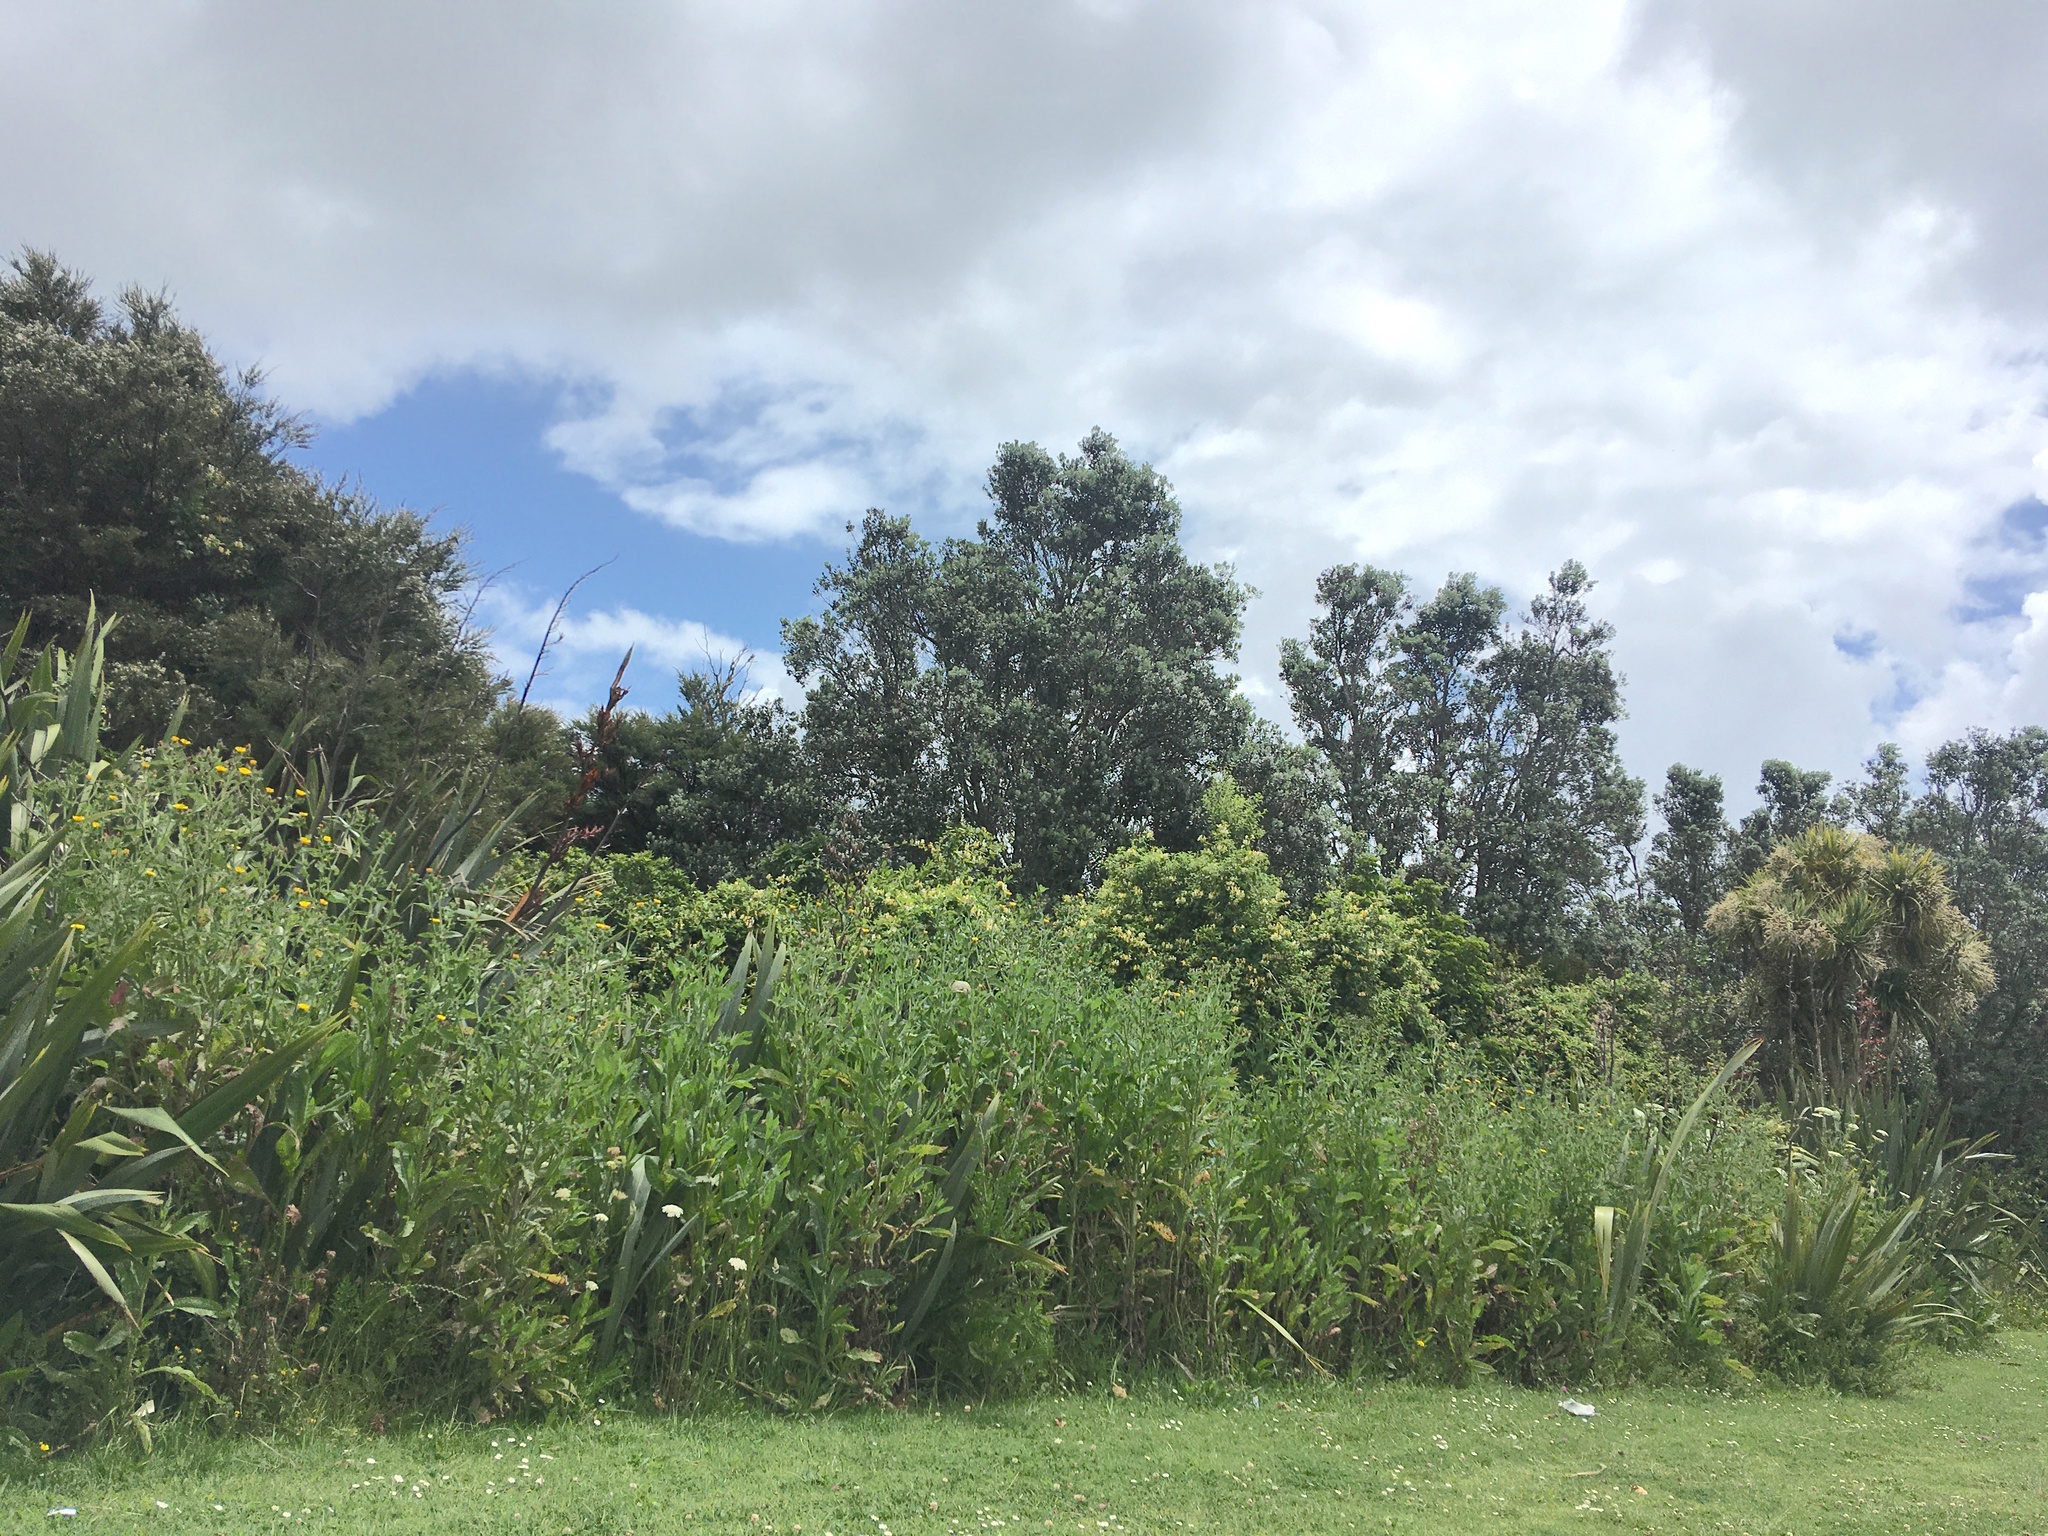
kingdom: Plantae
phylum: Tracheophyta
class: Magnoliopsida
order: Asterales
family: Asteraceae
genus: Helminthotheca
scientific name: Helminthotheca echioides
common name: Ox-tongue
